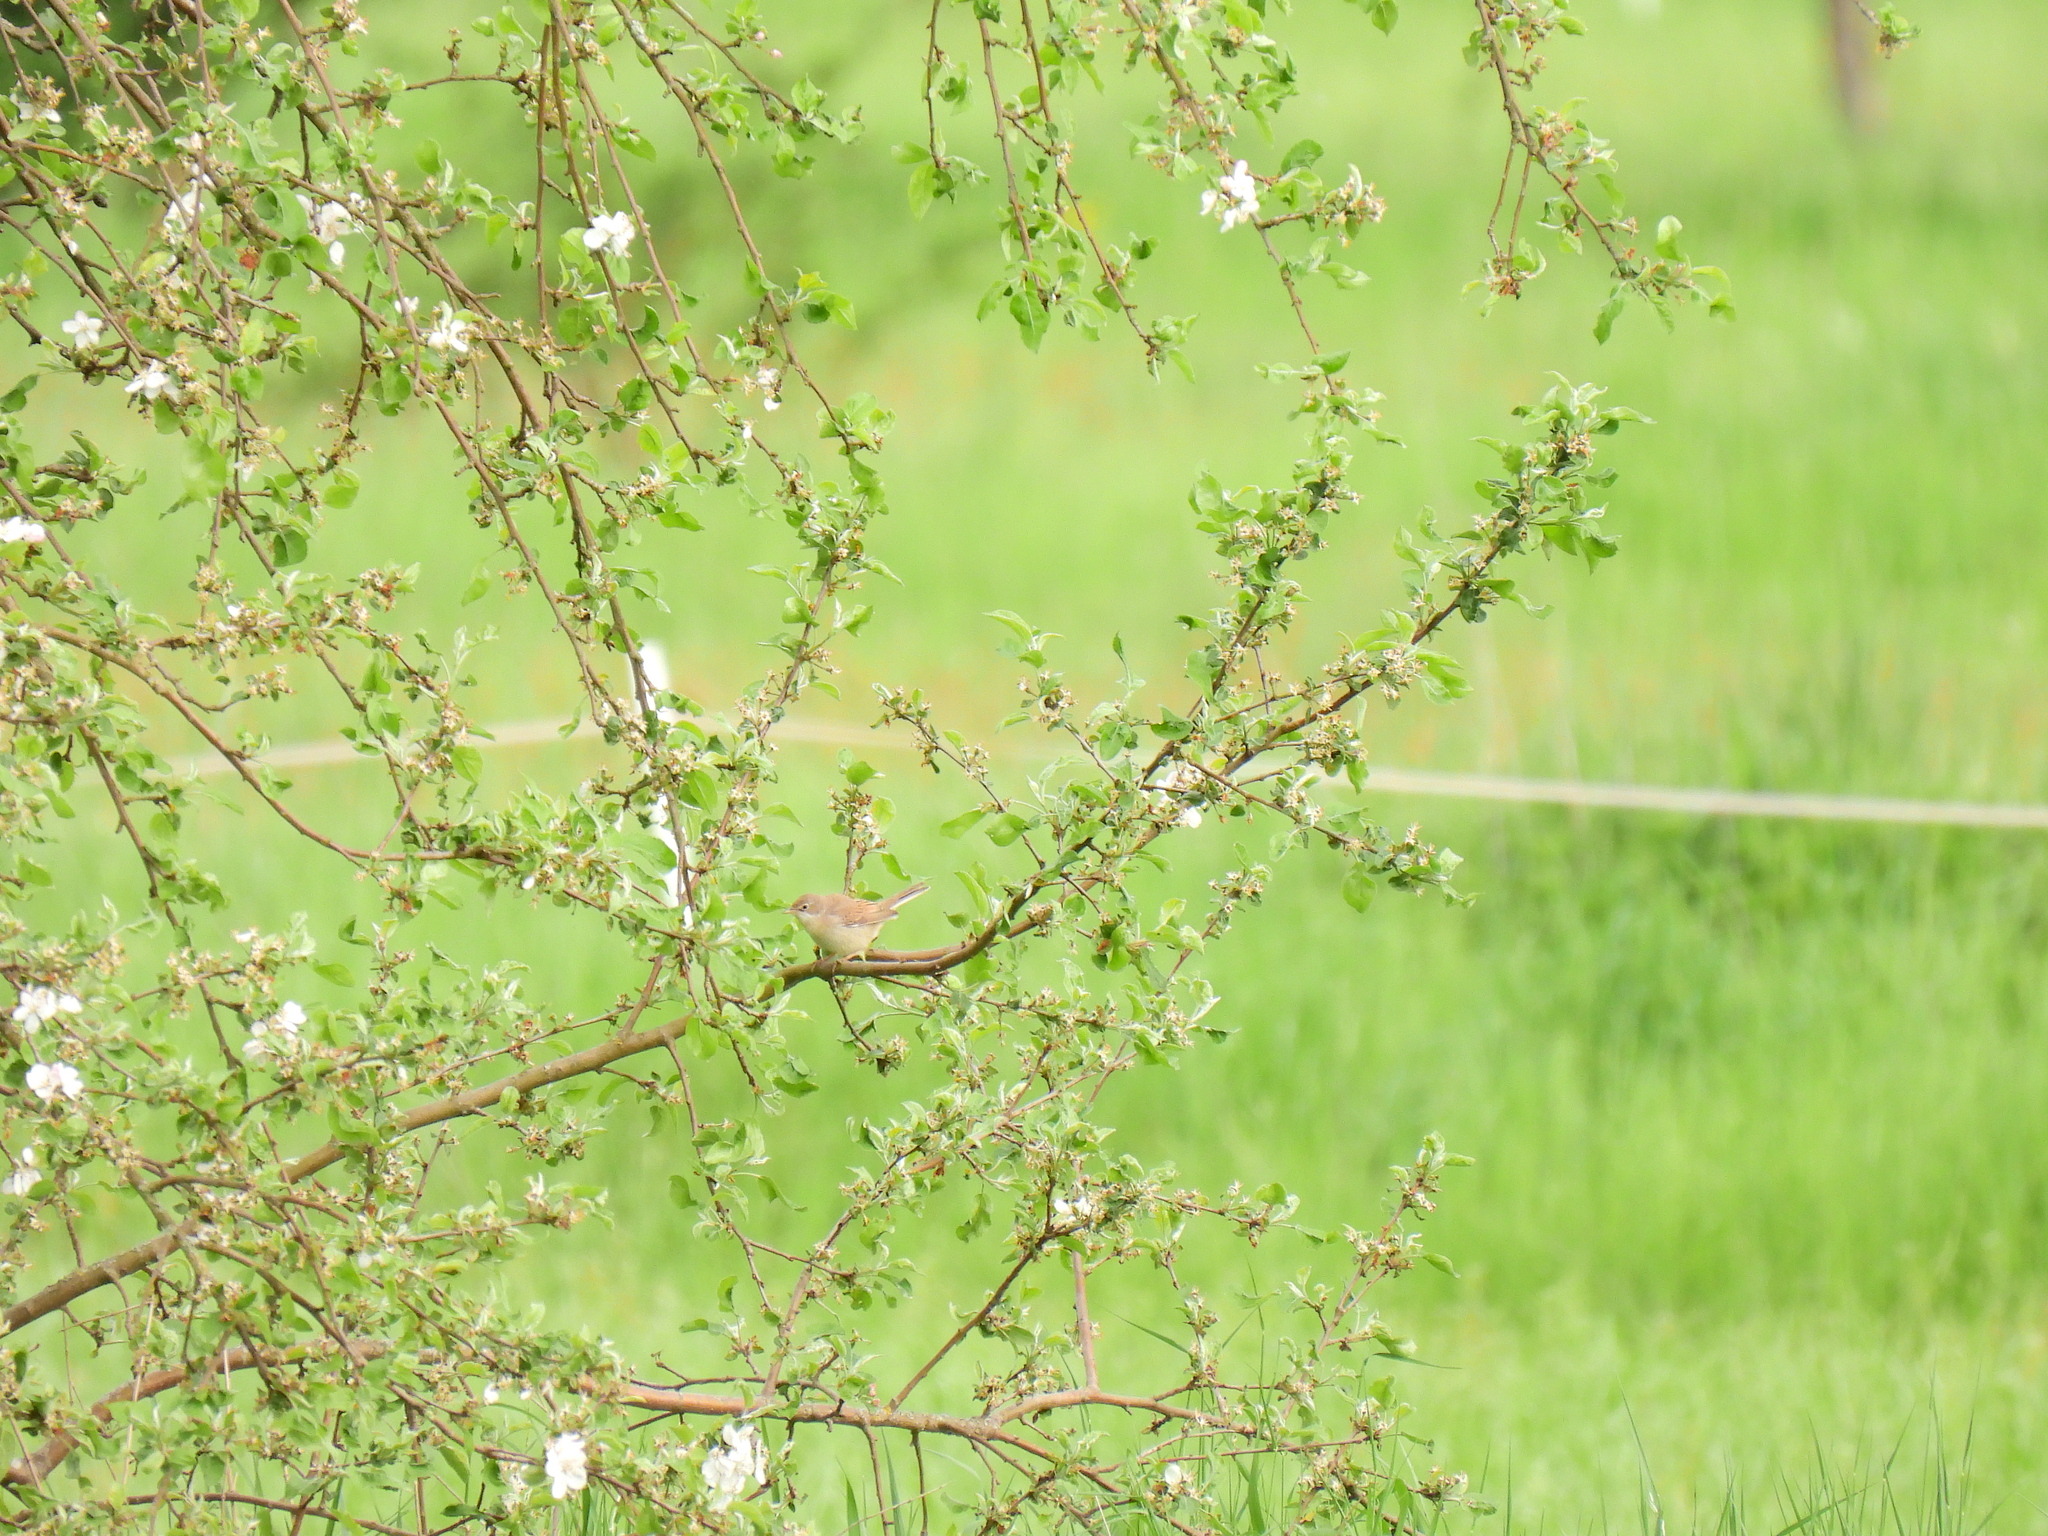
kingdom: Animalia
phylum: Chordata
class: Aves
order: Passeriformes
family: Sylviidae
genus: Sylvia
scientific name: Sylvia communis
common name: Common whitethroat
